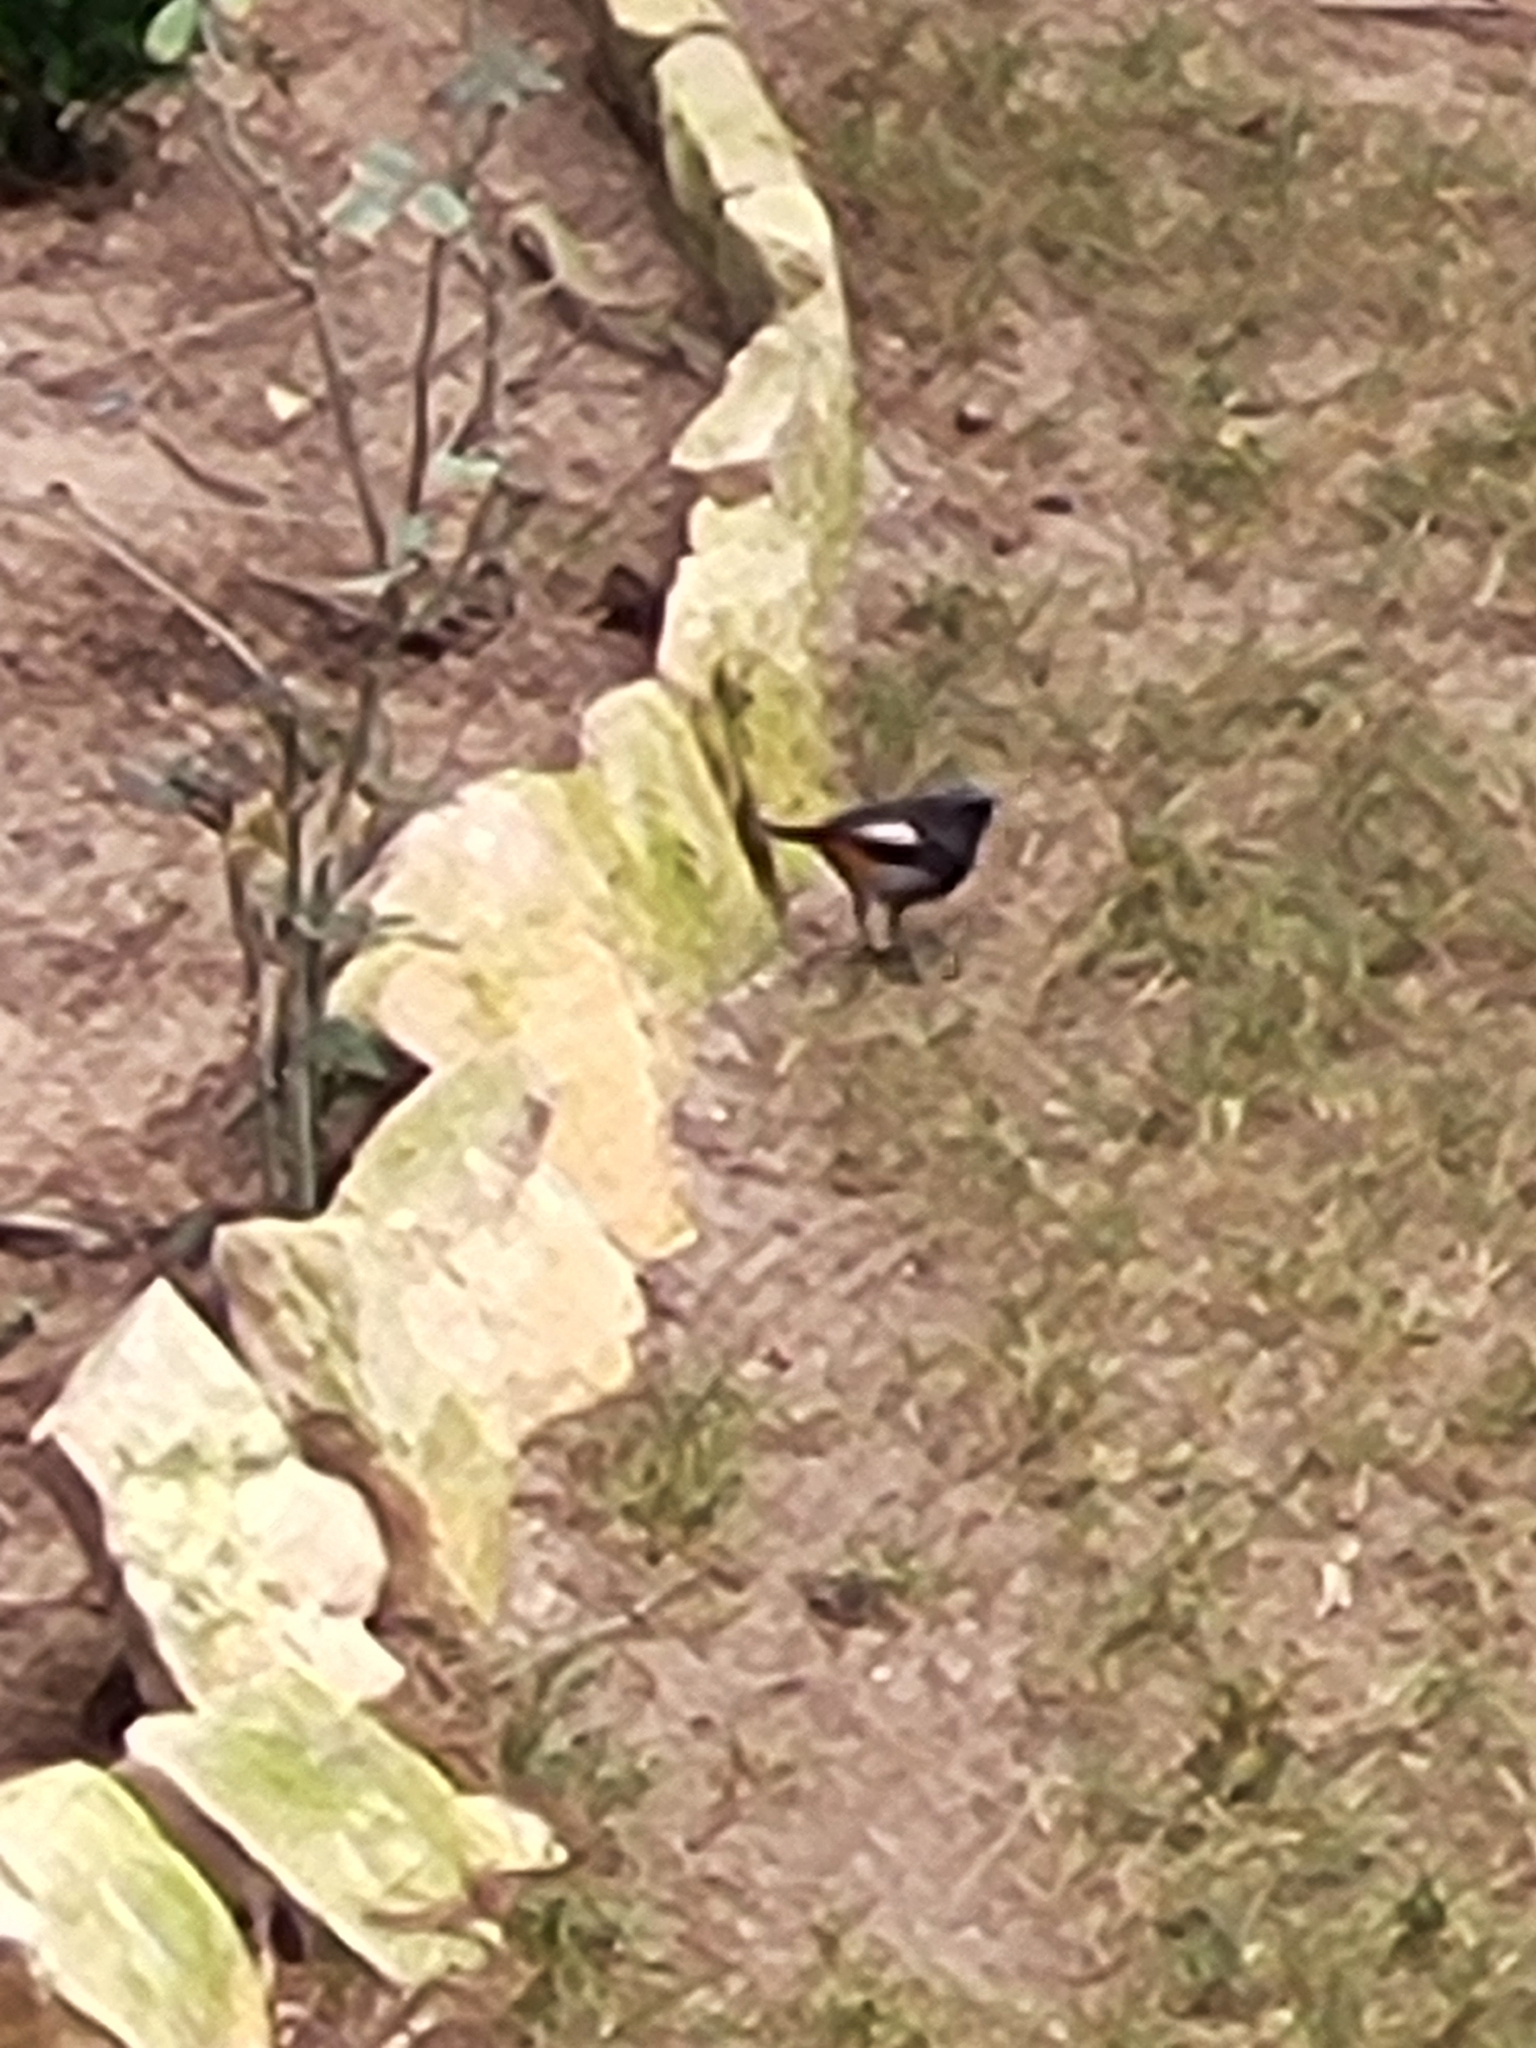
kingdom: Animalia
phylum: Chordata
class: Aves
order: Passeriformes
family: Muscicapidae
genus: Phoenicurus
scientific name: Phoenicurus ochruros
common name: Black redstart
